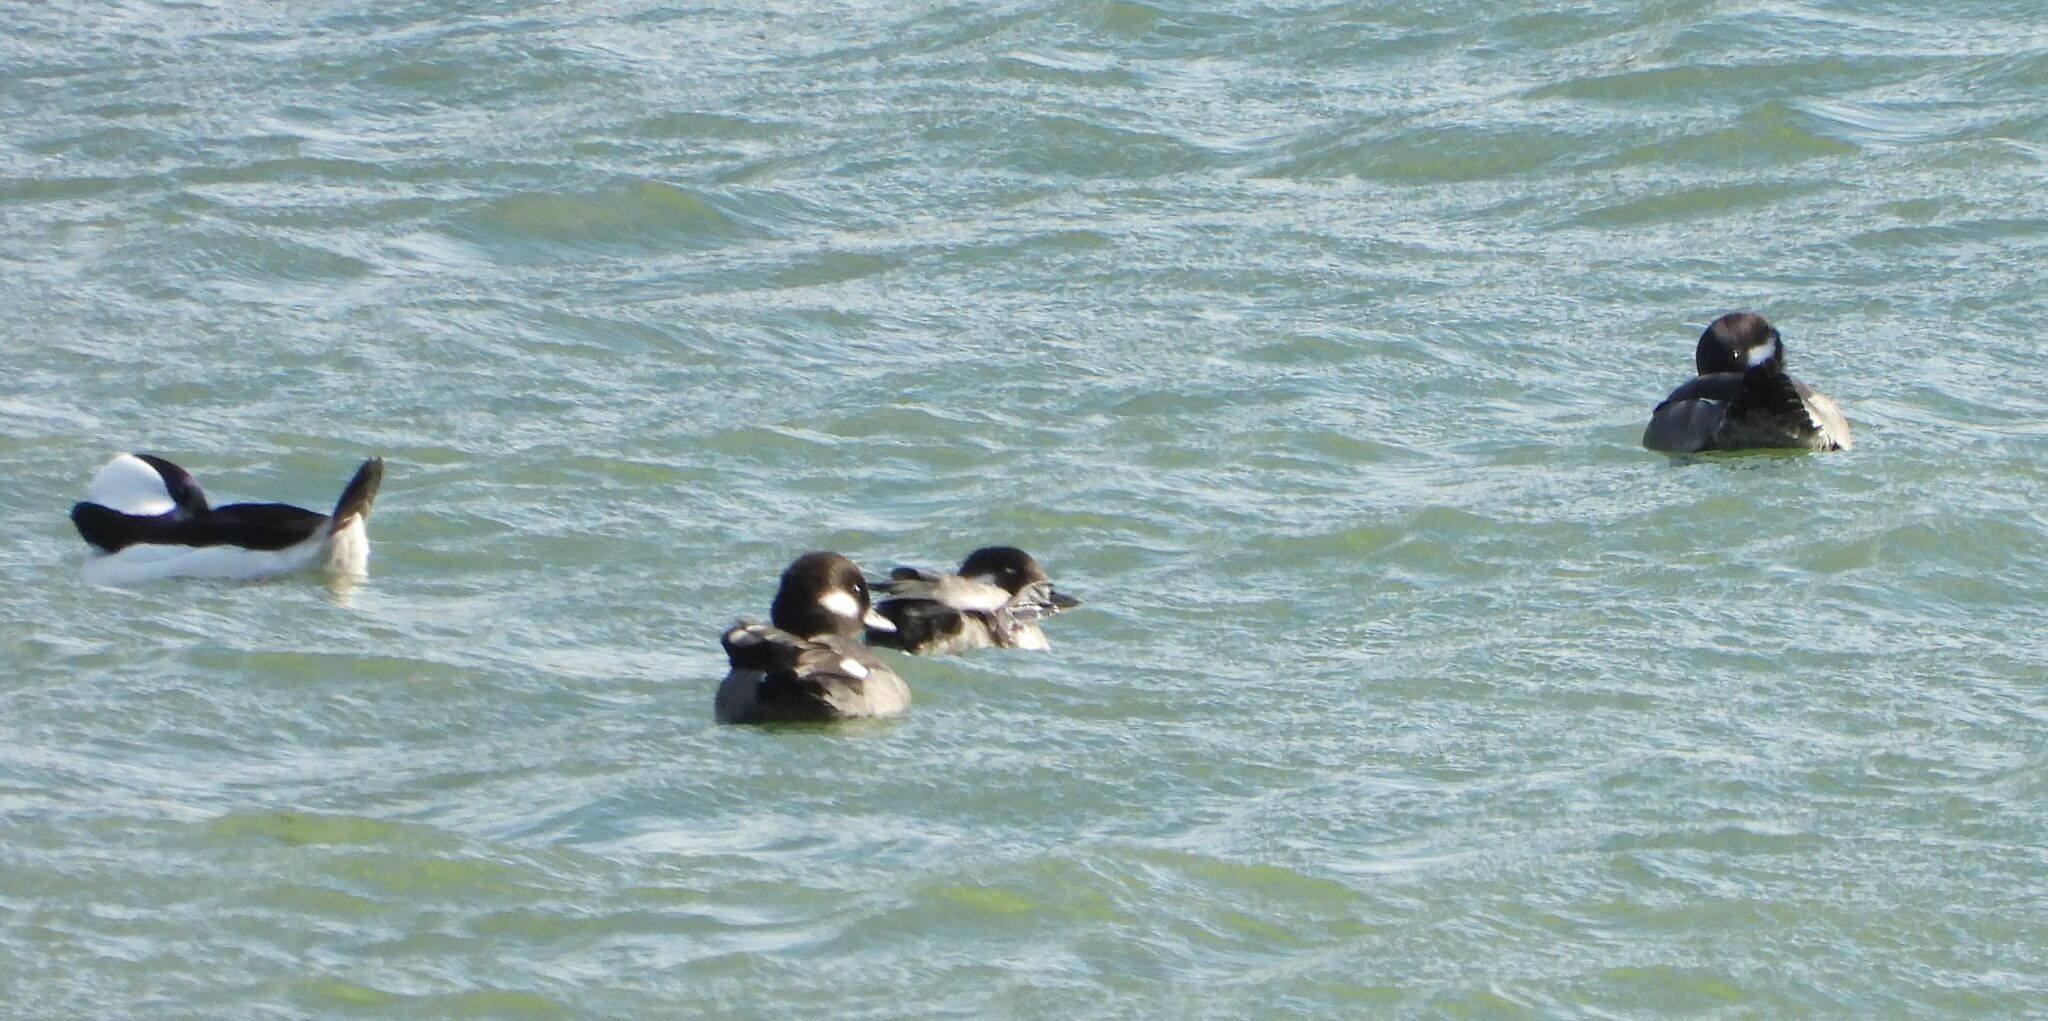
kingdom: Animalia
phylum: Chordata
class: Aves
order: Anseriformes
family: Anatidae
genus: Bucephala
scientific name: Bucephala albeola
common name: Bufflehead
